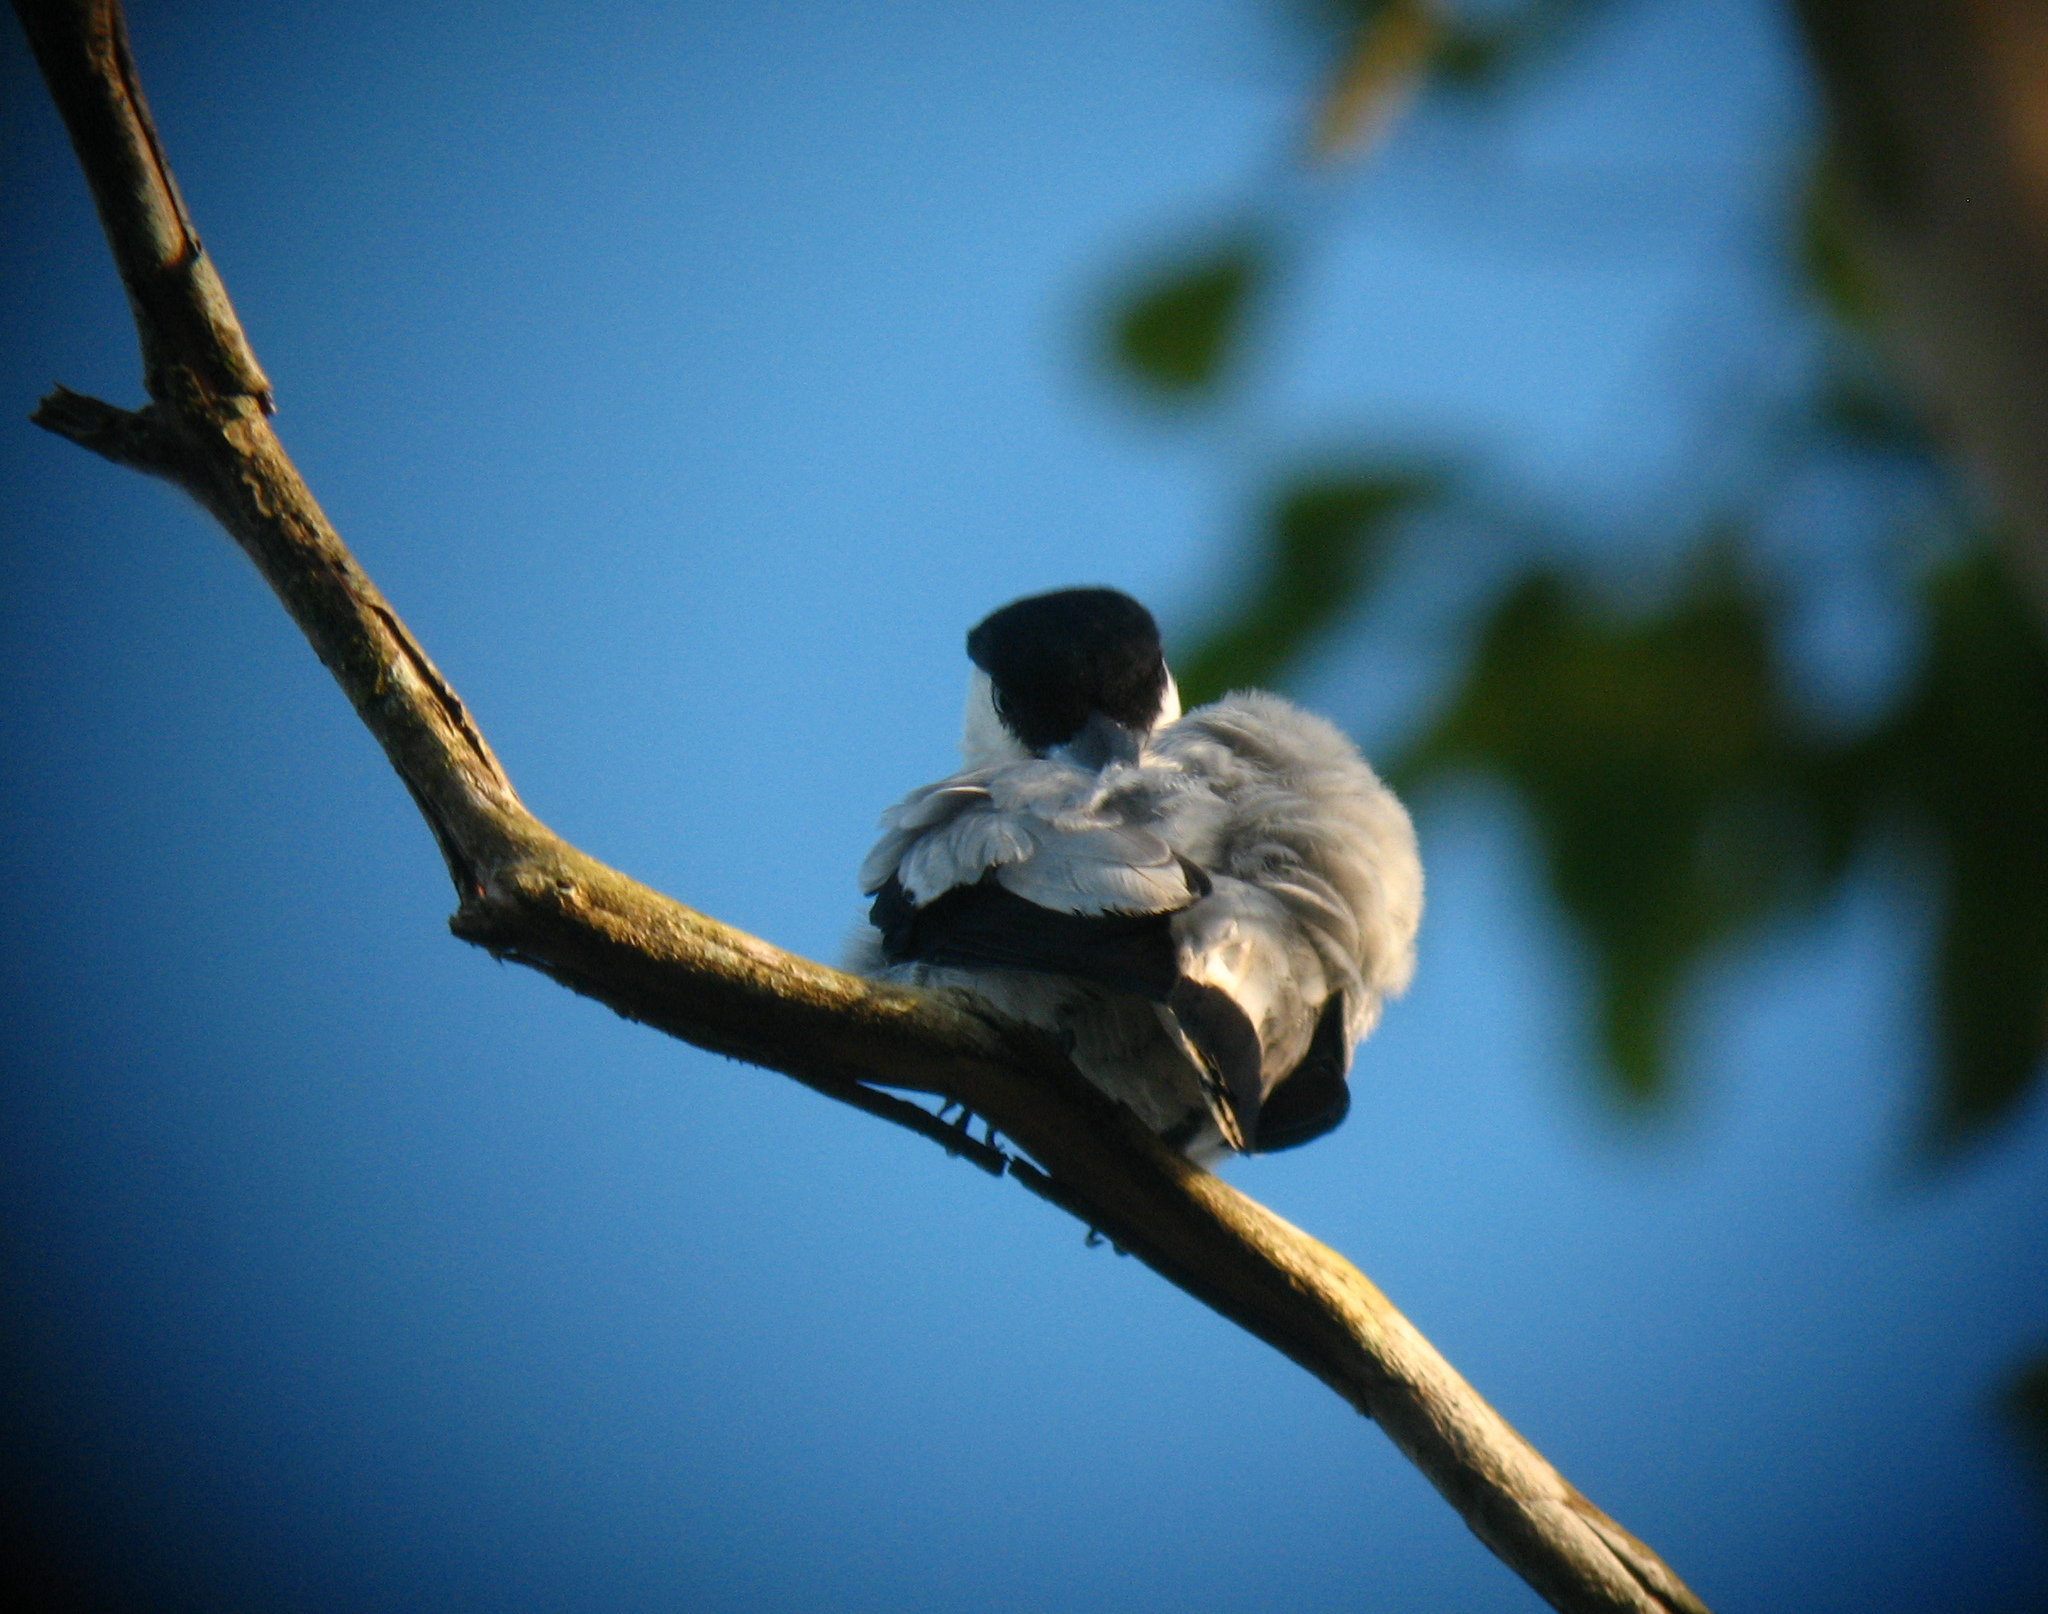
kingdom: Animalia
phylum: Chordata
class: Aves
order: Passeriformes
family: Cotingidae
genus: Tityra
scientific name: Tityra inquisitor
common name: Black-crowned tityra
